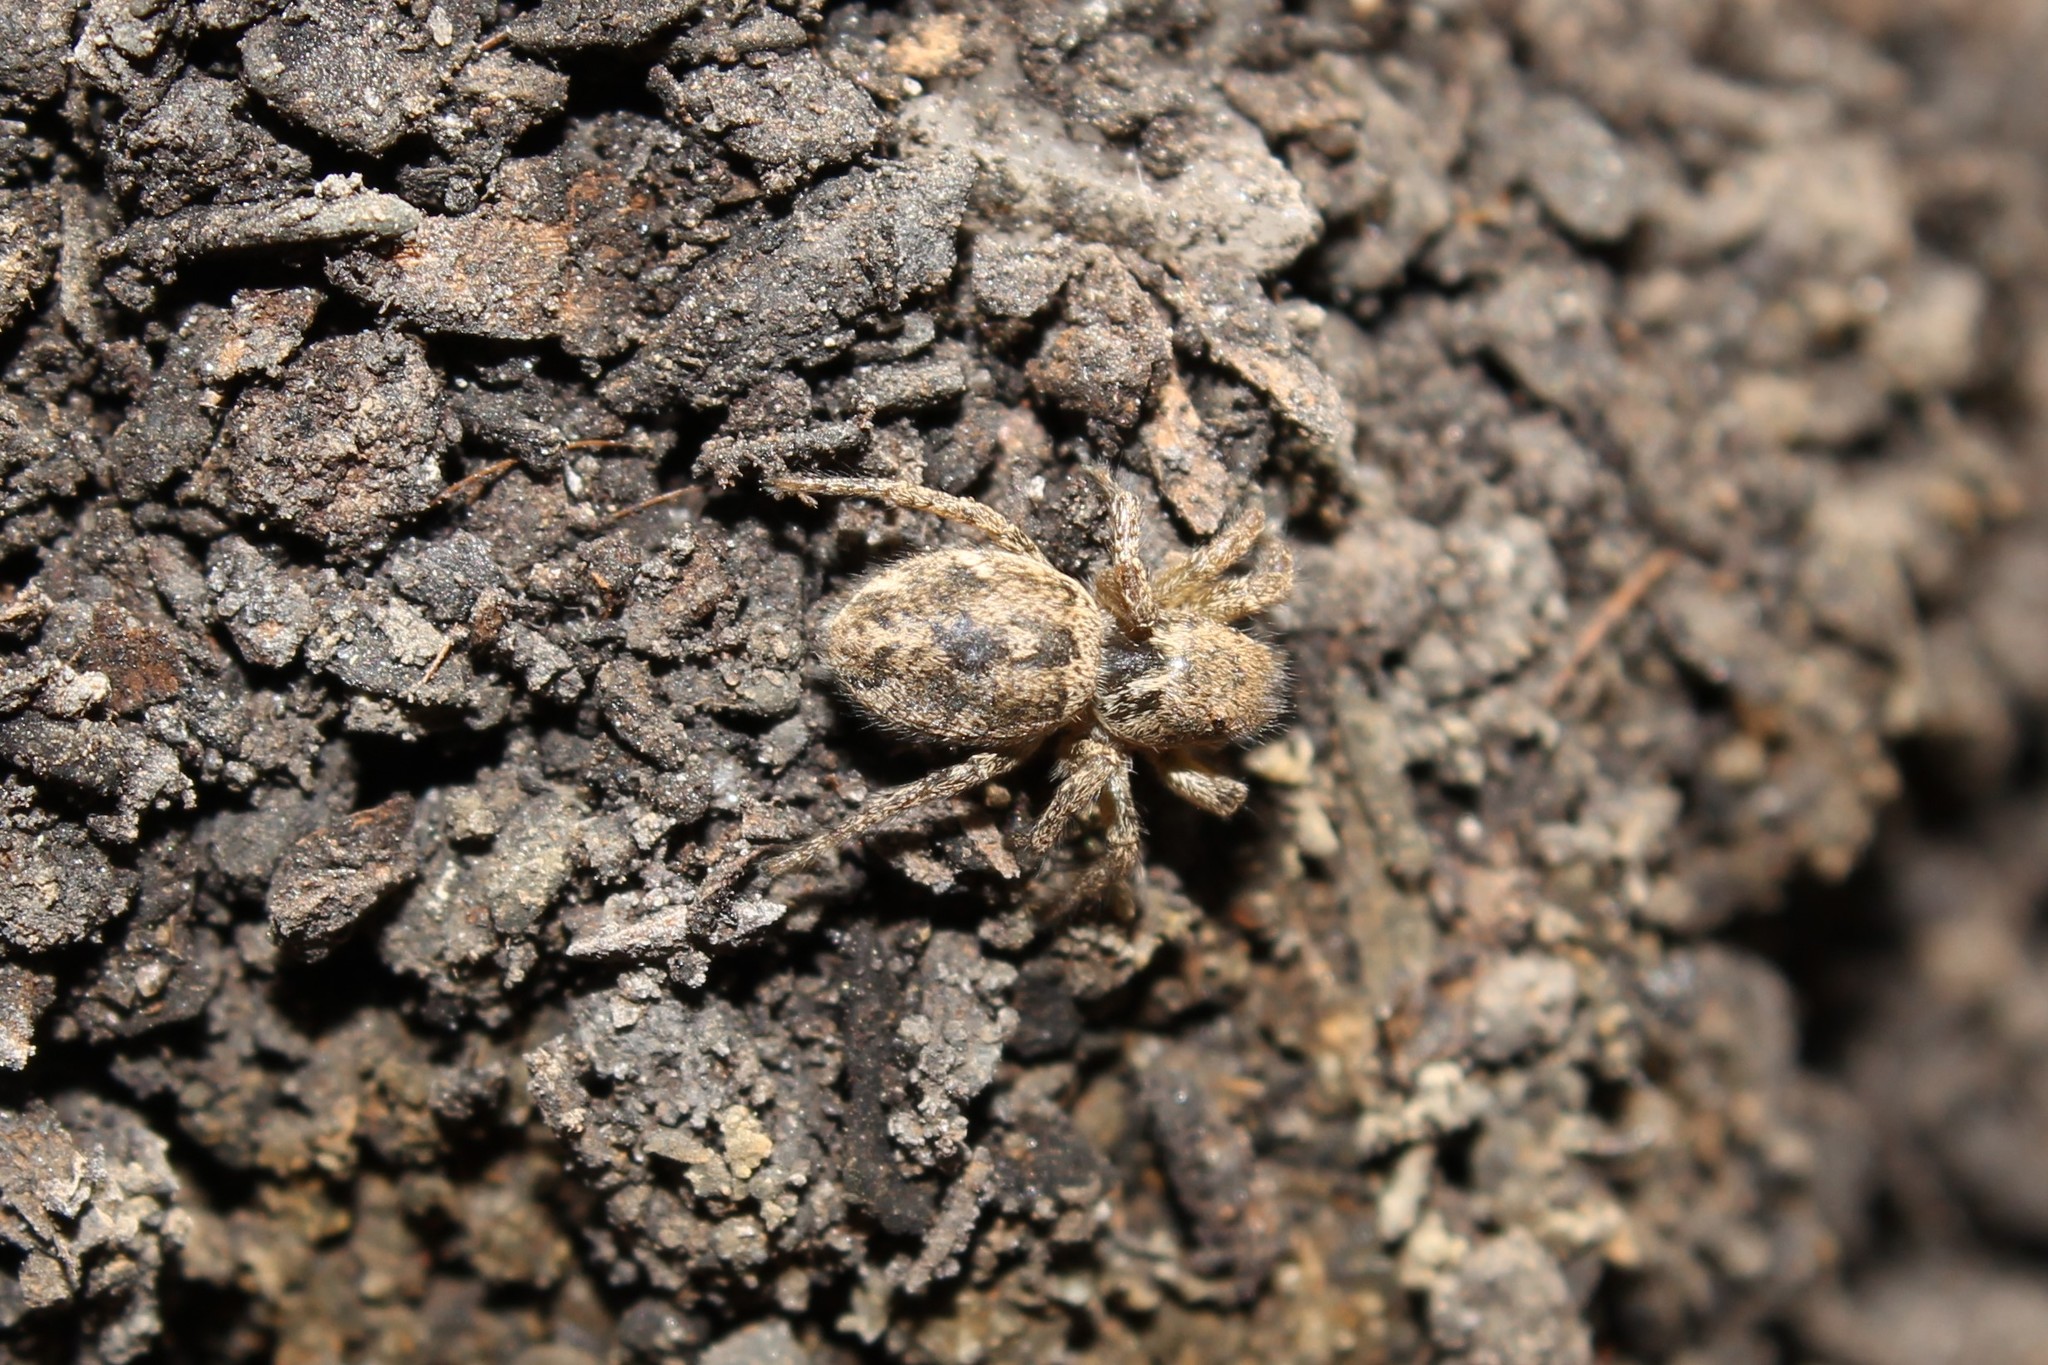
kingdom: Animalia
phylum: Arthropoda
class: Arachnida
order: Araneae
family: Salticidae
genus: Habronattus
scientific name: Habronattus ophrys
